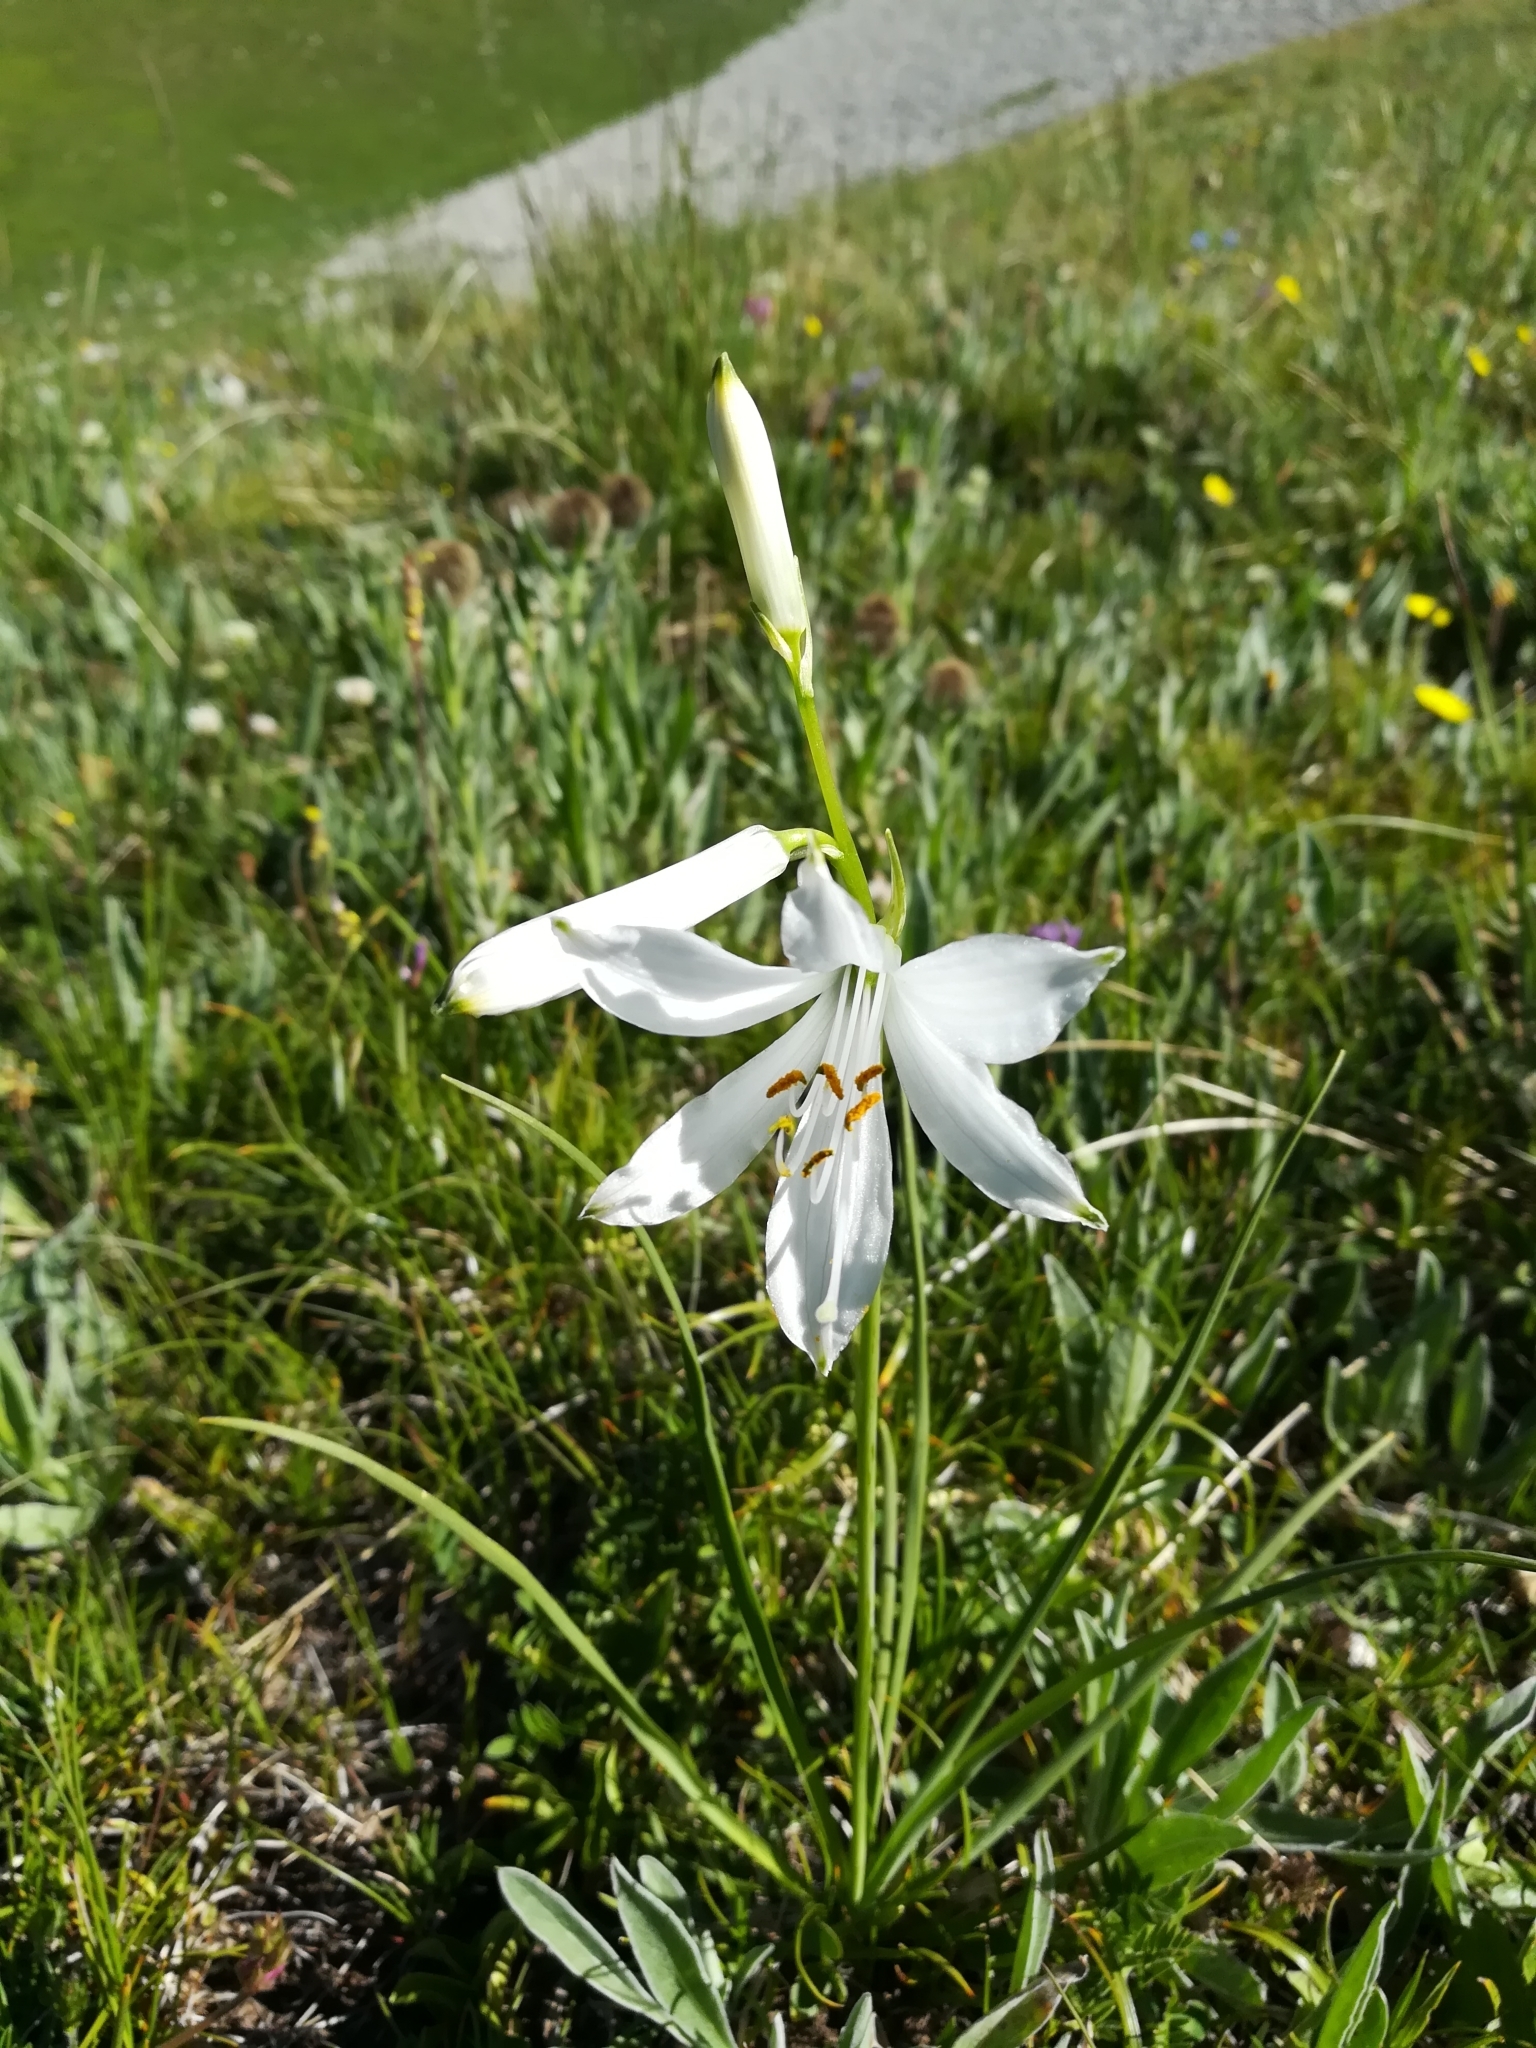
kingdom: Plantae
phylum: Tracheophyta
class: Liliopsida
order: Asparagales
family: Asparagaceae
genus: Paradisea
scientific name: Paradisea liliastrum
